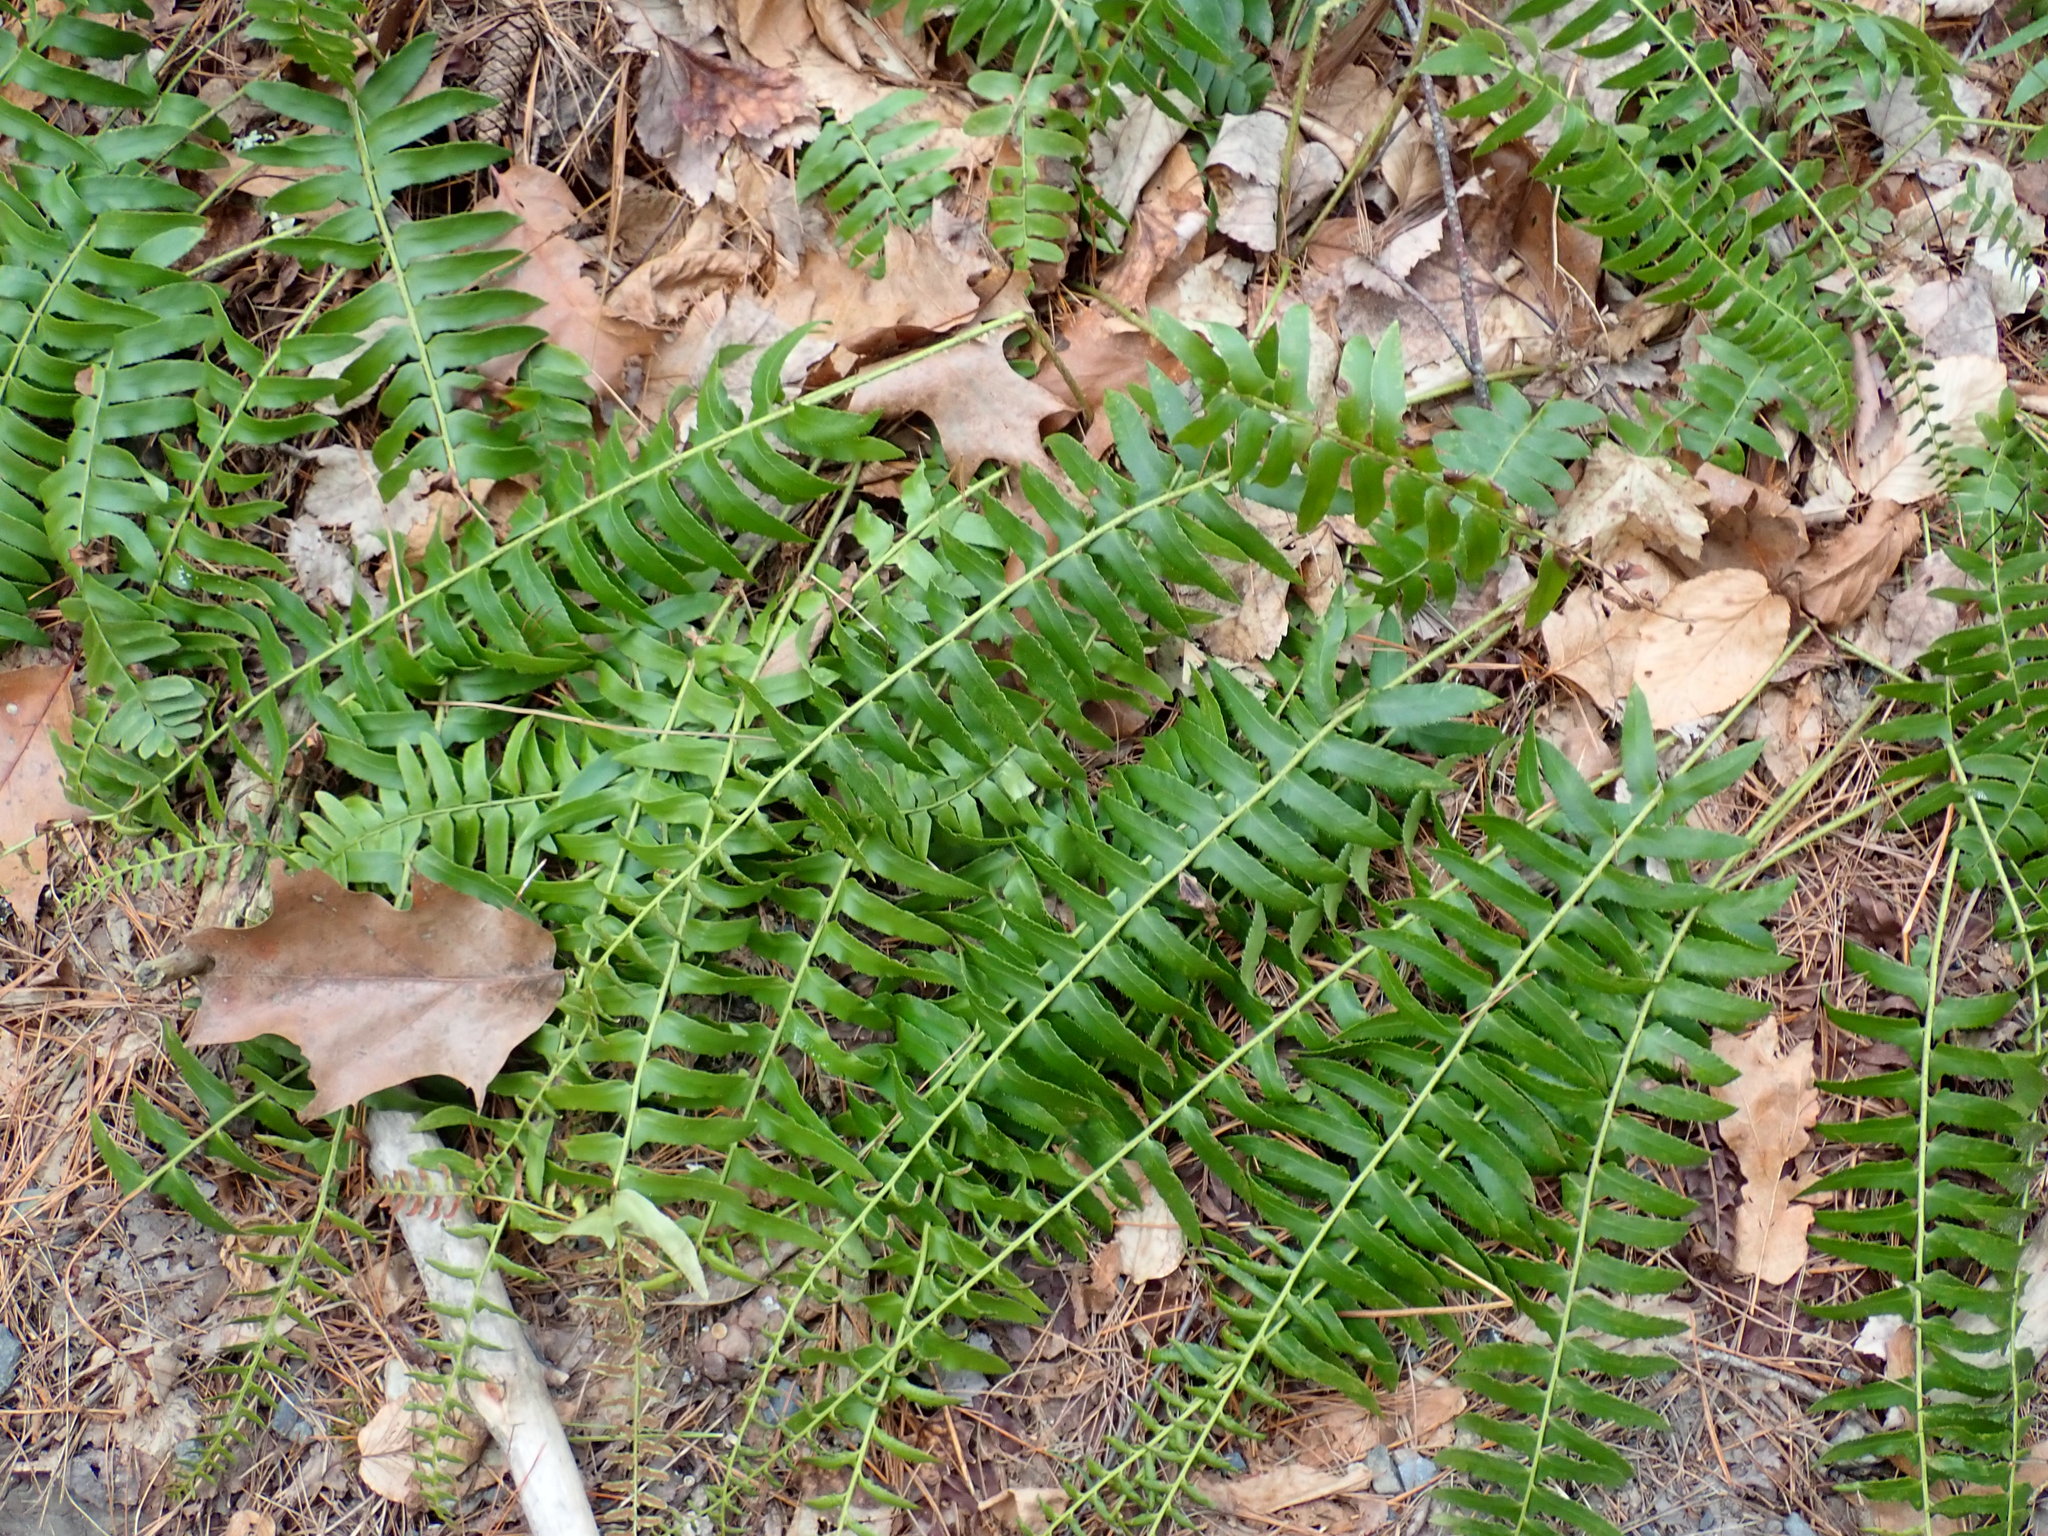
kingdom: Plantae
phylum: Tracheophyta
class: Polypodiopsida
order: Polypodiales
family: Dryopteridaceae
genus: Polystichum
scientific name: Polystichum acrostichoides
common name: Christmas fern
